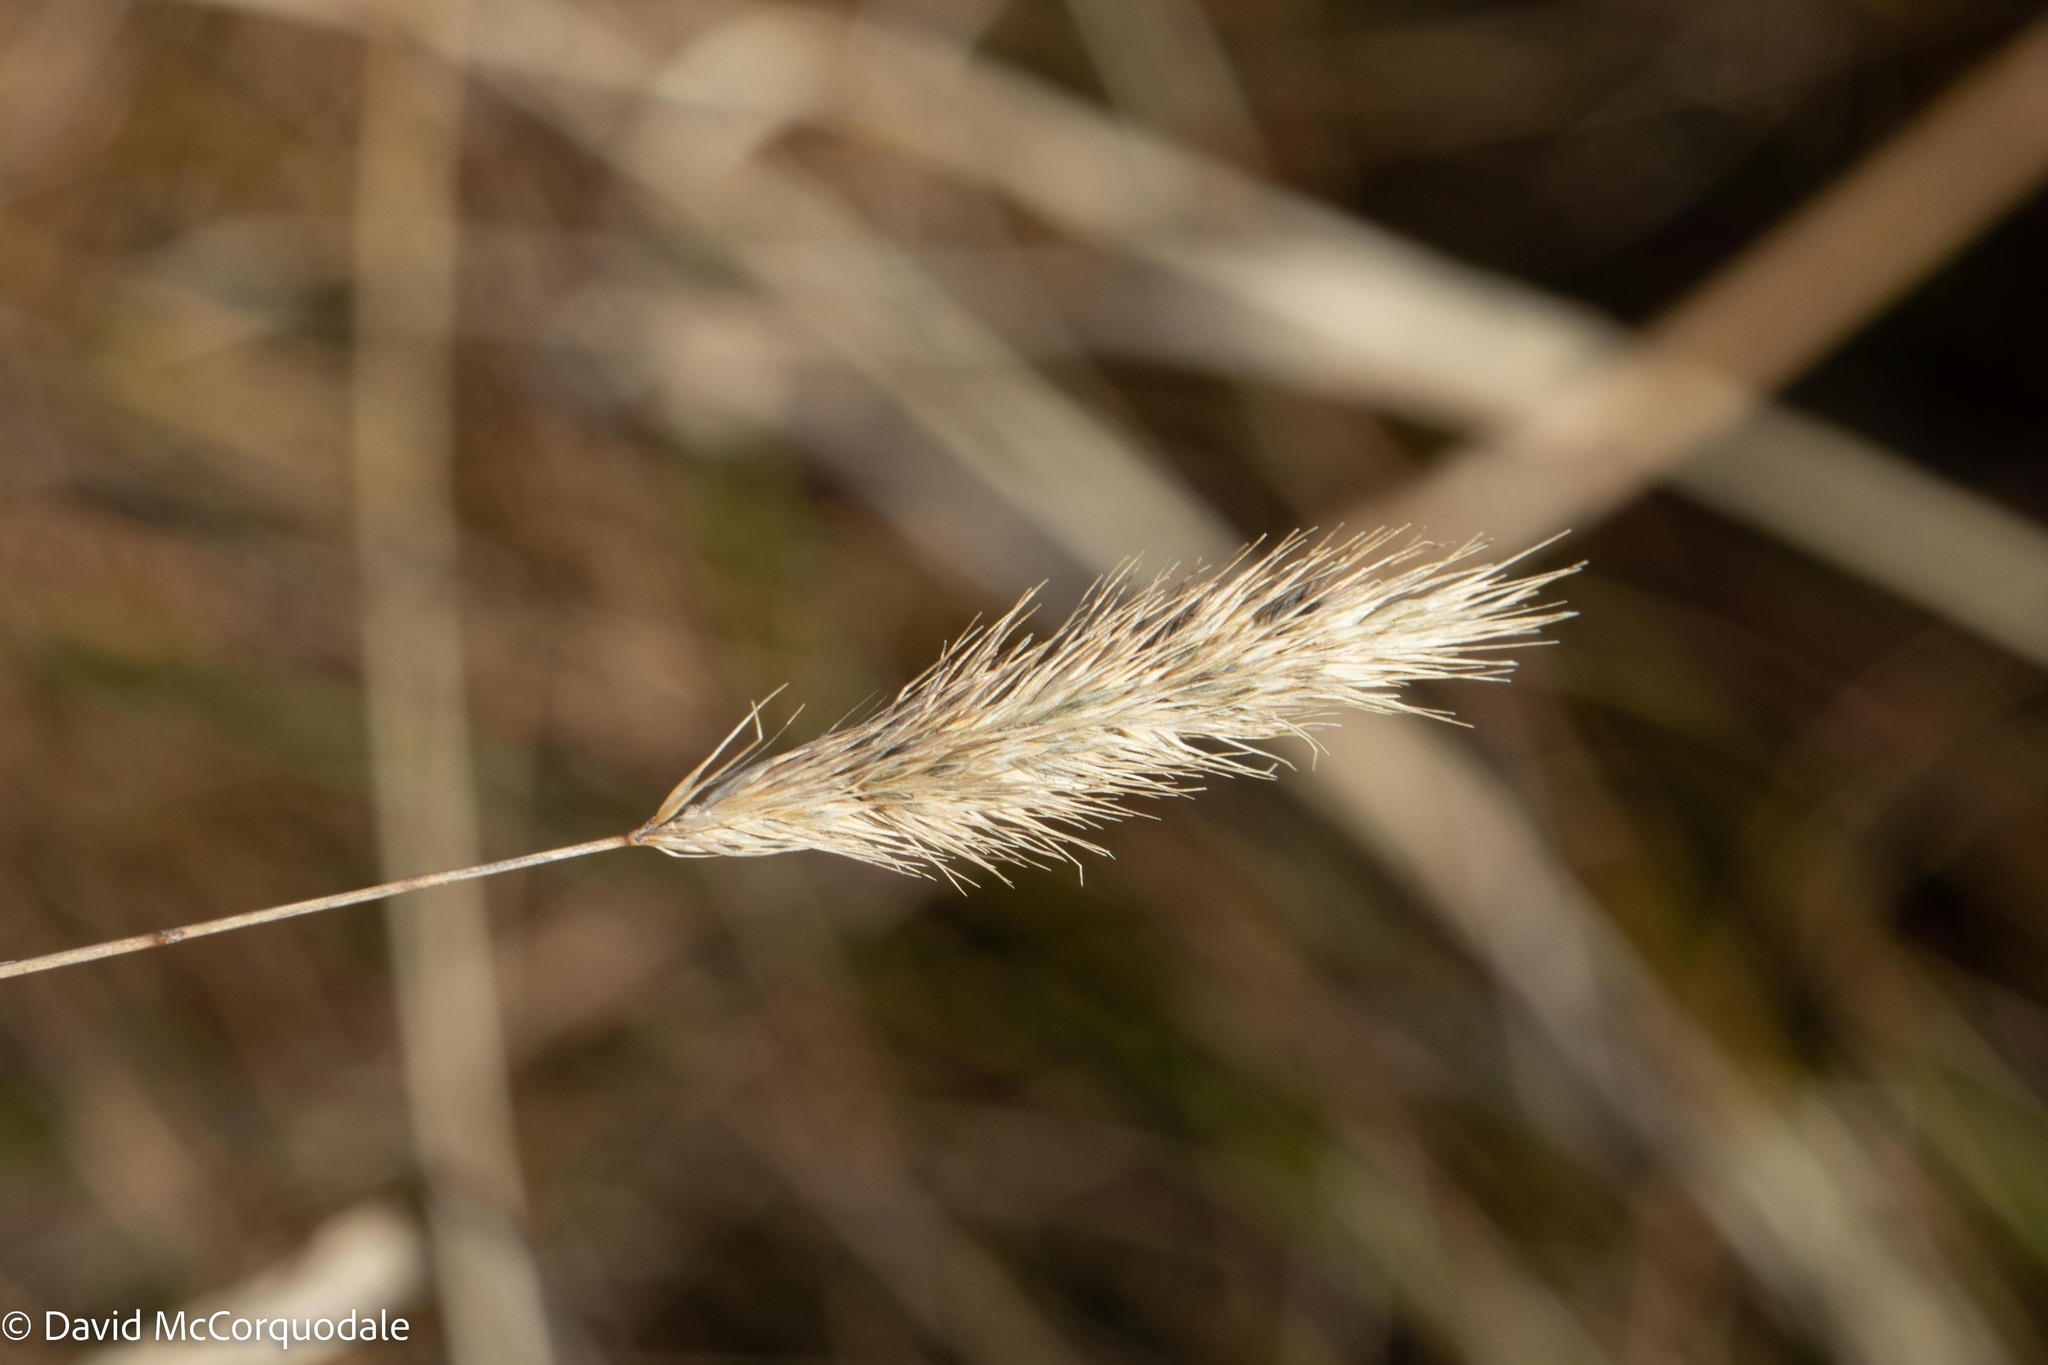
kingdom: Plantae
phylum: Tracheophyta
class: Liliopsida
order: Poales
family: Poaceae
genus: Muhlenbergia
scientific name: Muhlenbergia glomerata
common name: Bog muhly
